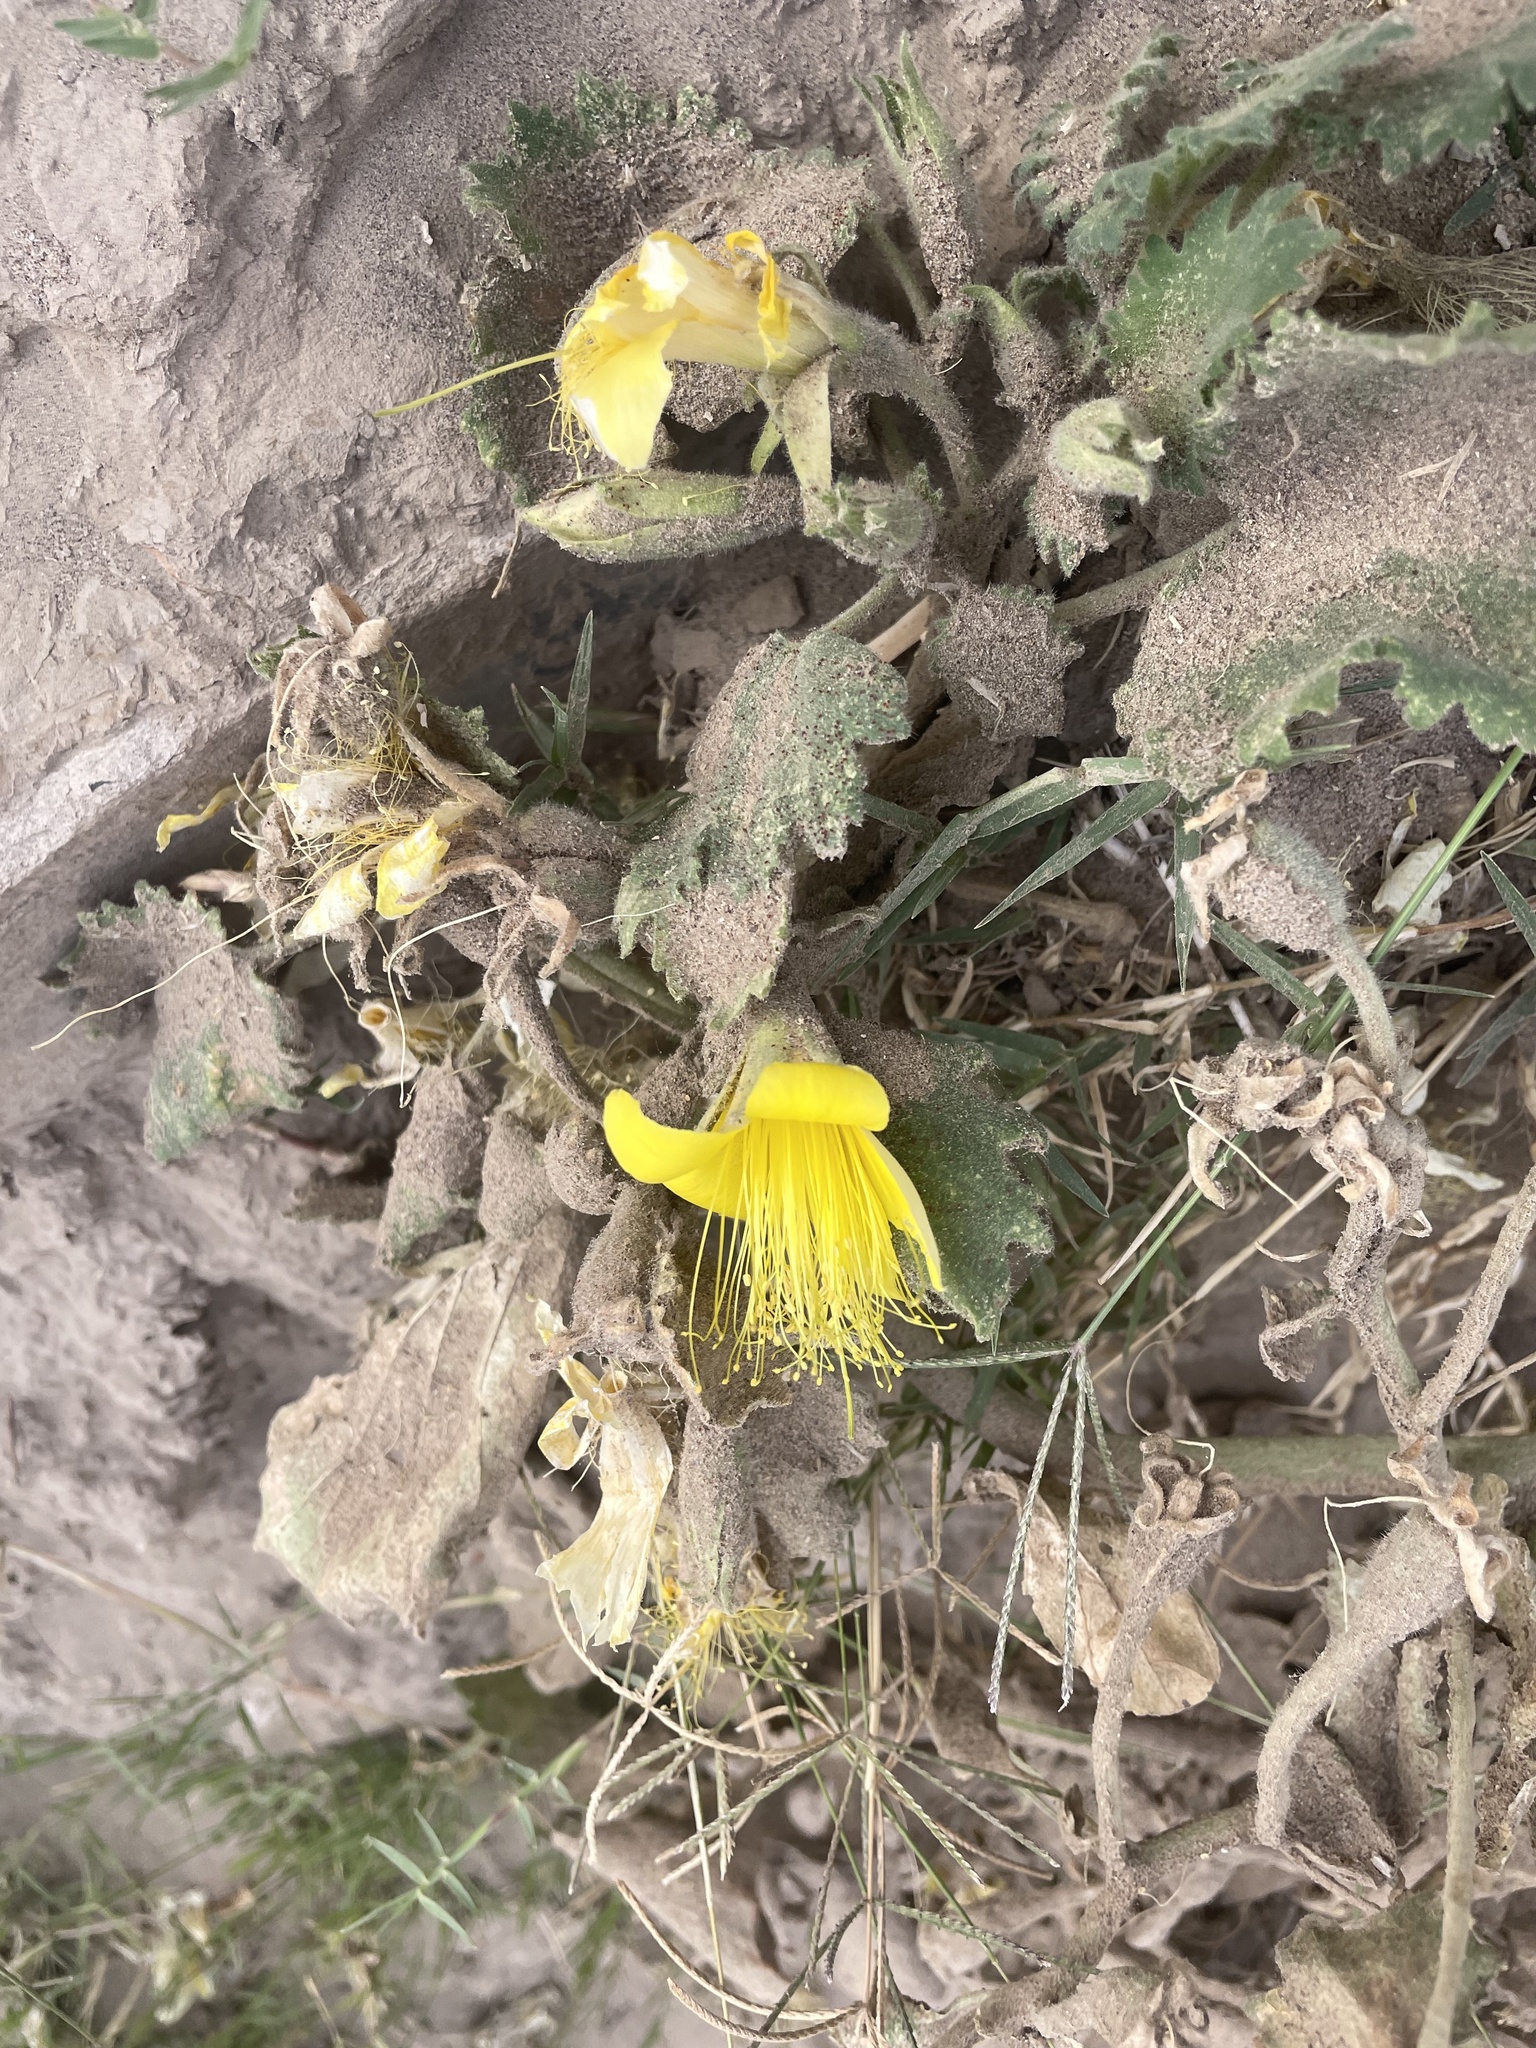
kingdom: Plantae
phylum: Tracheophyta
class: Magnoliopsida
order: Cornales
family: Loasaceae
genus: Eucnide
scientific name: Eucnide bartonioides
